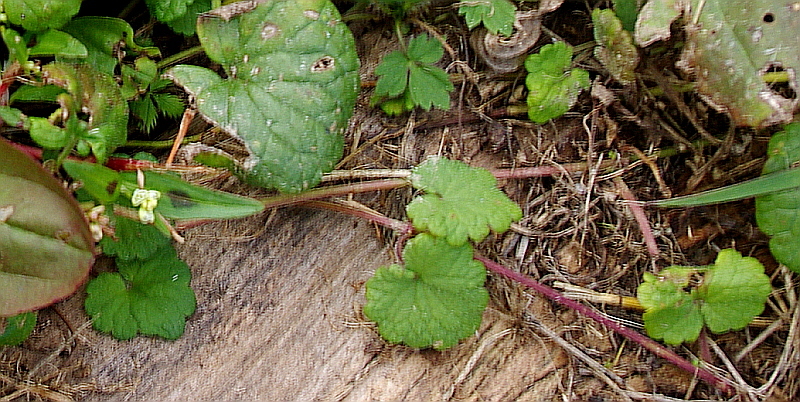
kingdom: Plantae
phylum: Tracheophyta
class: Magnoliopsida
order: Lamiales
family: Lamiaceae
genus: Glechoma
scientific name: Glechoma hederacea
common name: Ground ivy
